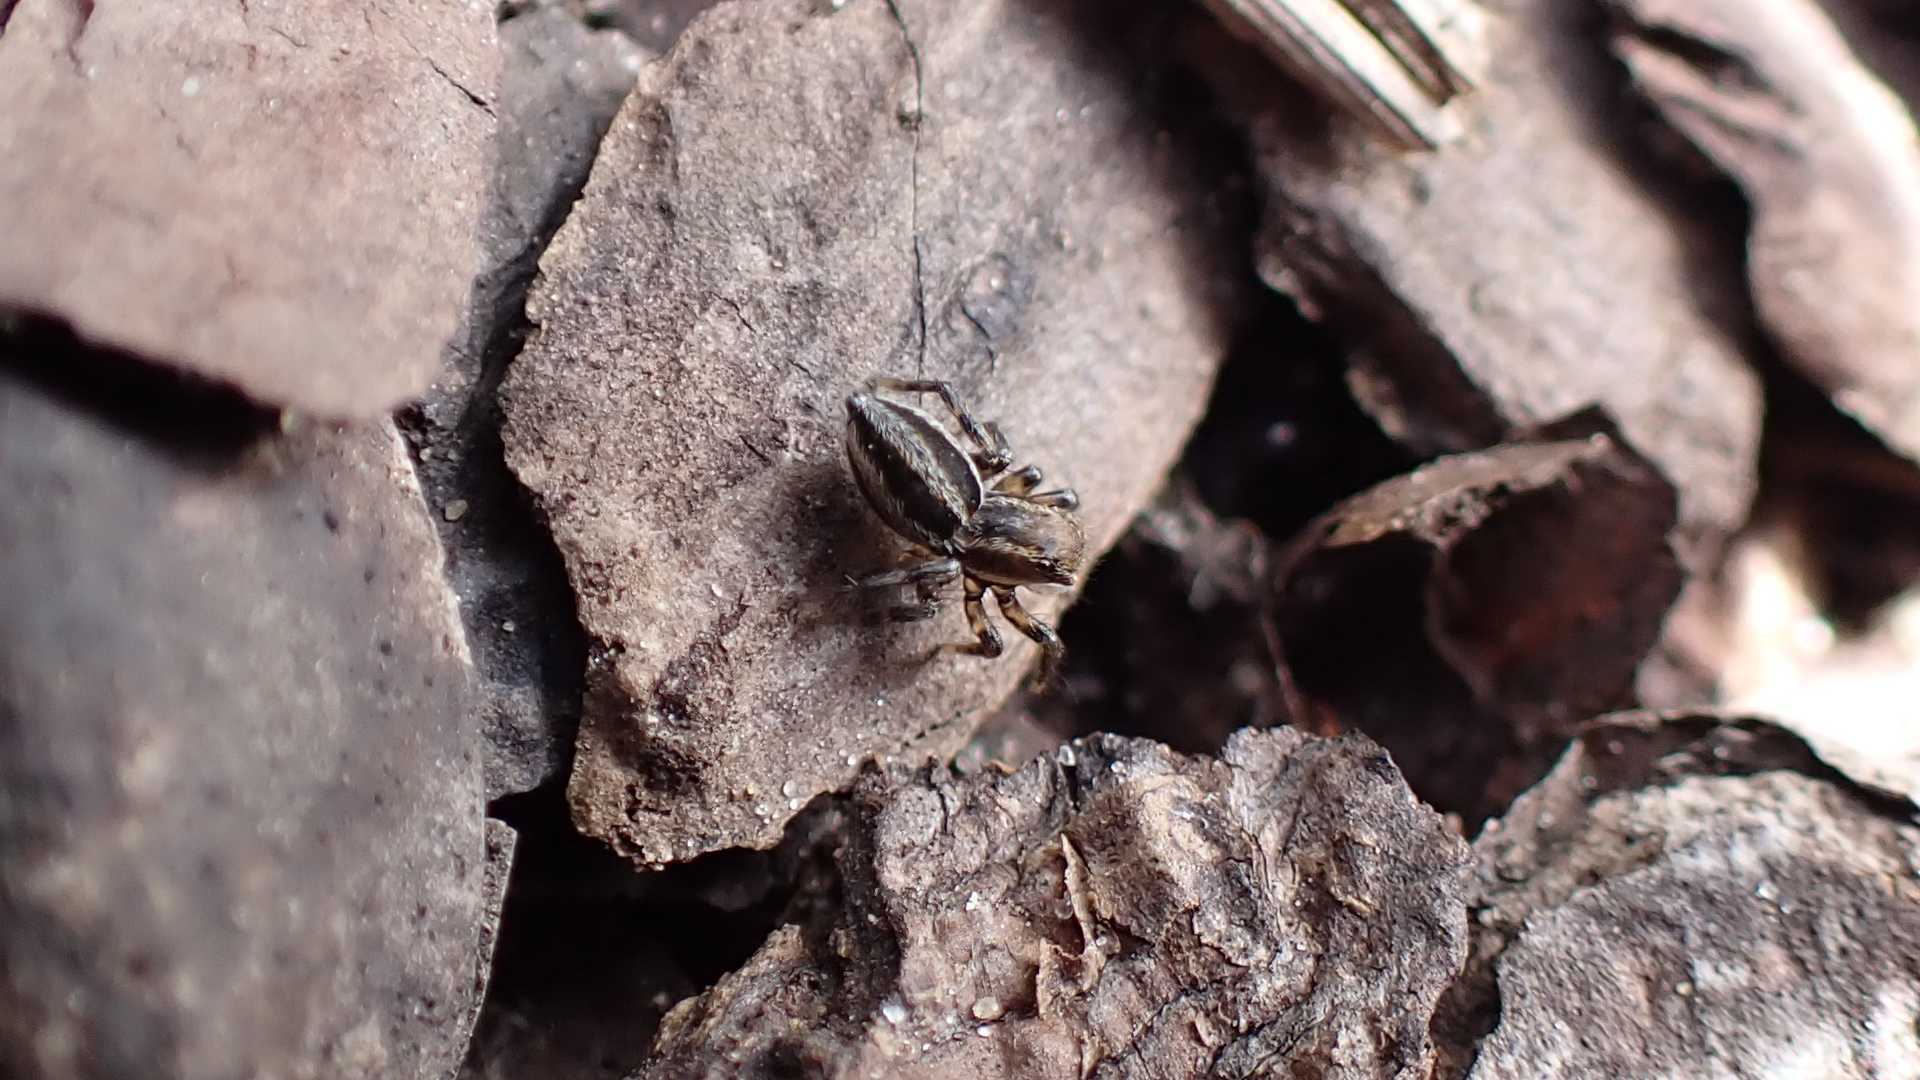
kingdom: Animalia
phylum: Arthropoda
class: Arachnida
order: Araneae
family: Salticidae
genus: Phlegra
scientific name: Phlegra fasciata
